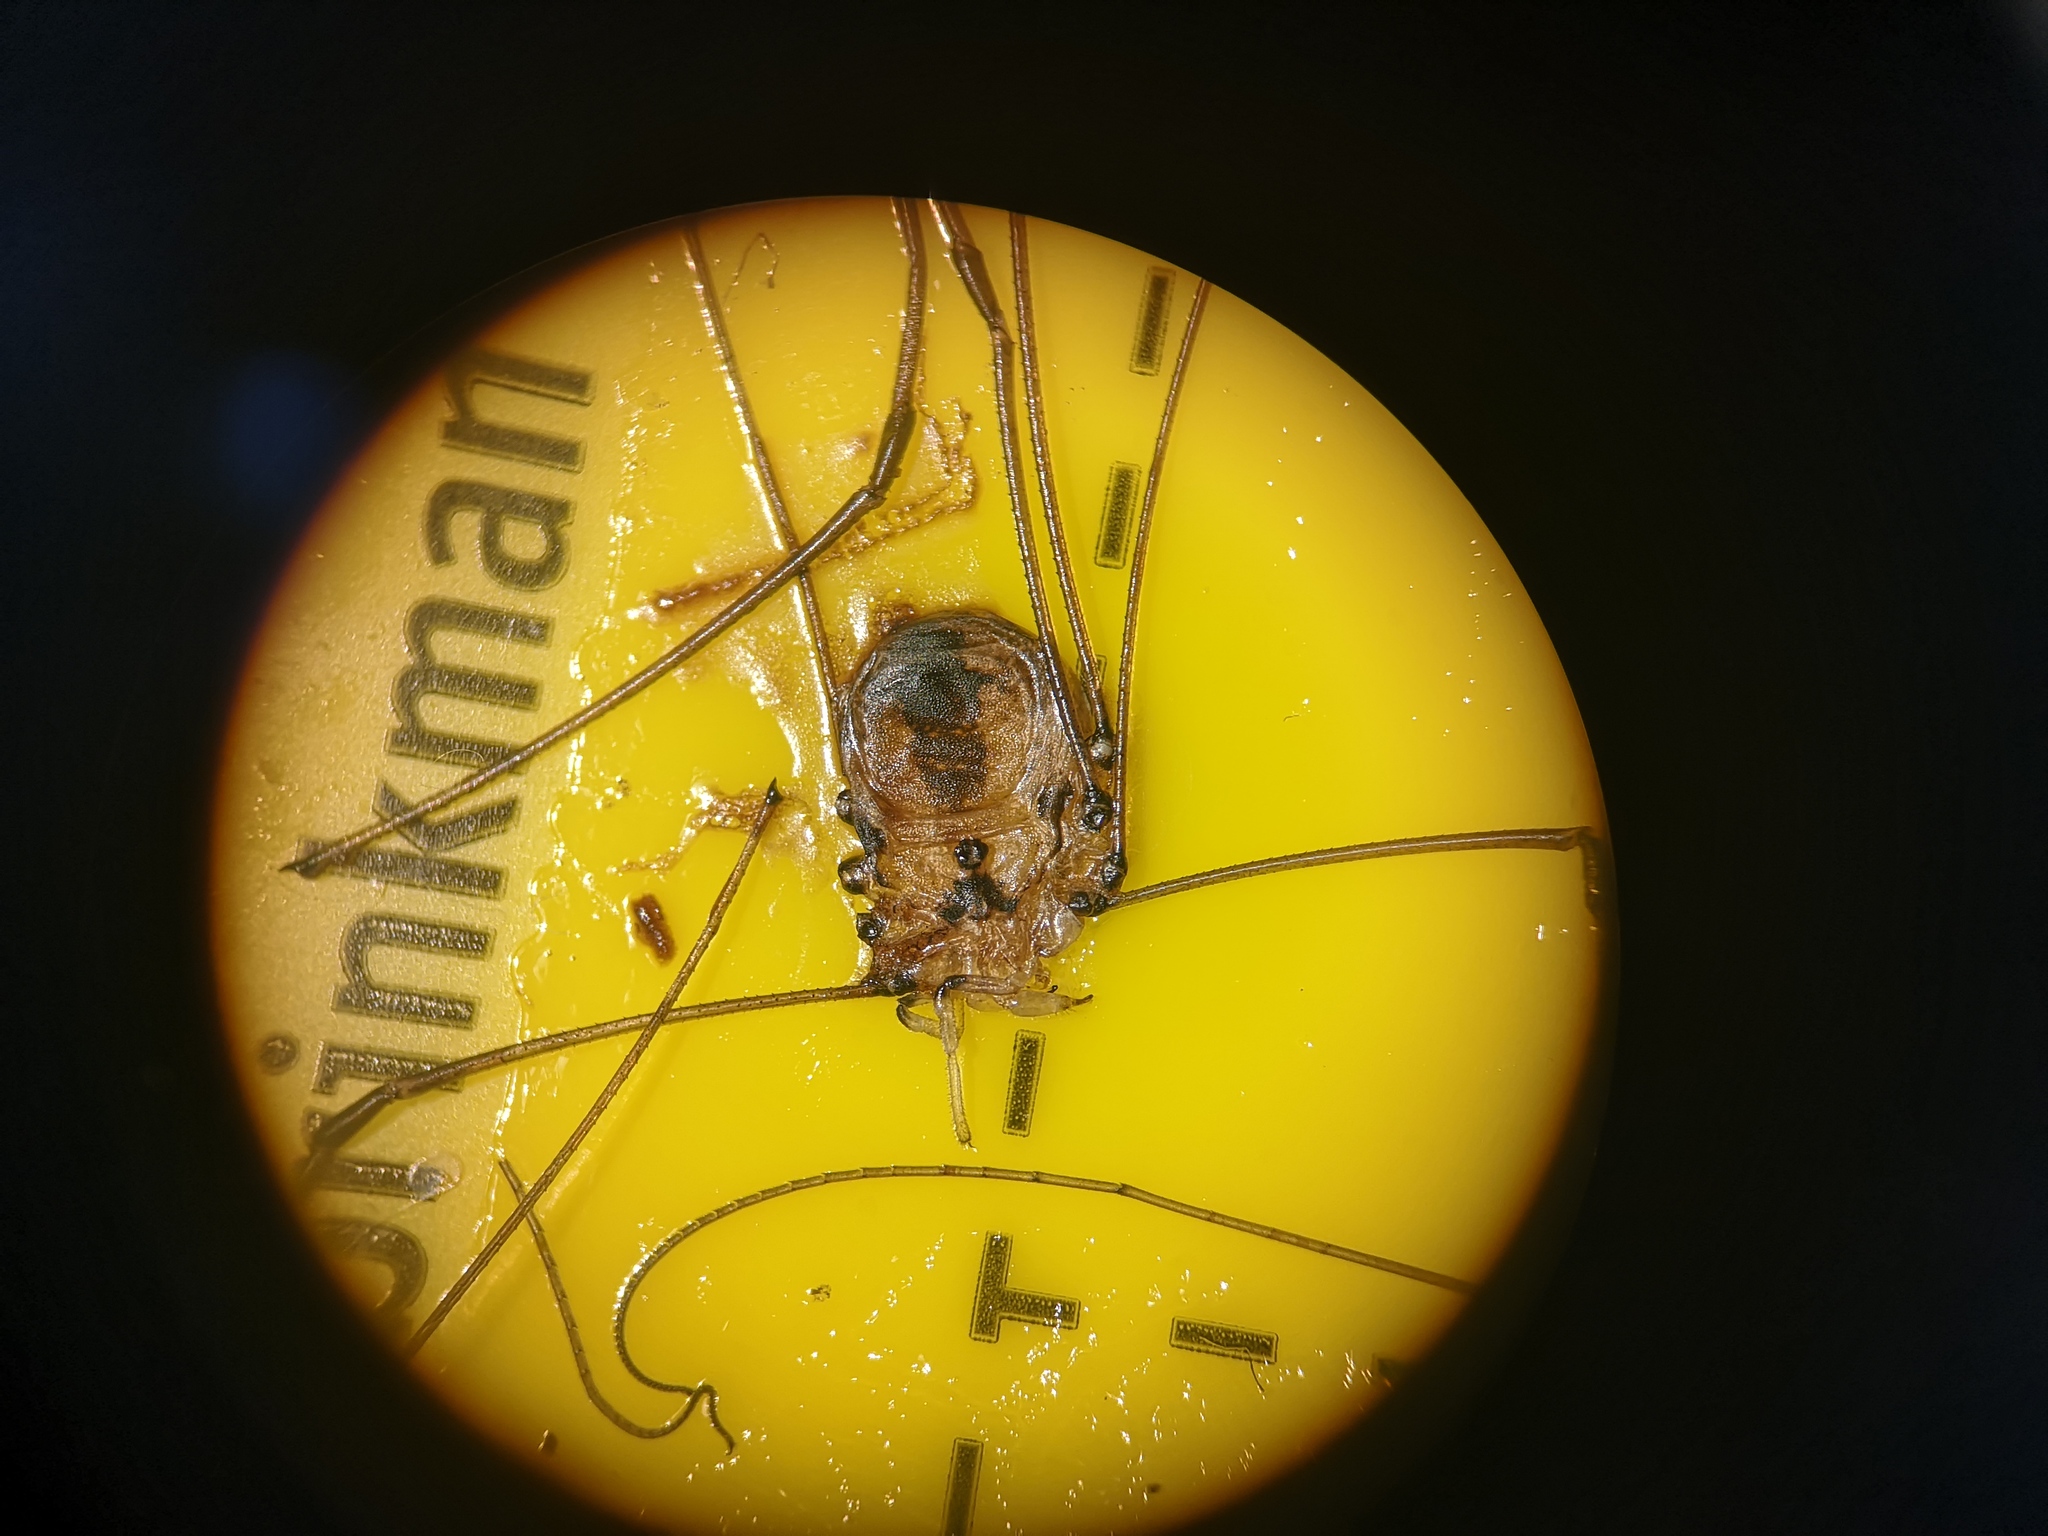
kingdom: Animalia
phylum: Arthropoda
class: Arachnida
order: Opiliones
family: Sclerosomatidae
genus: Leiobunum
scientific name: Leiobunum rotundum
